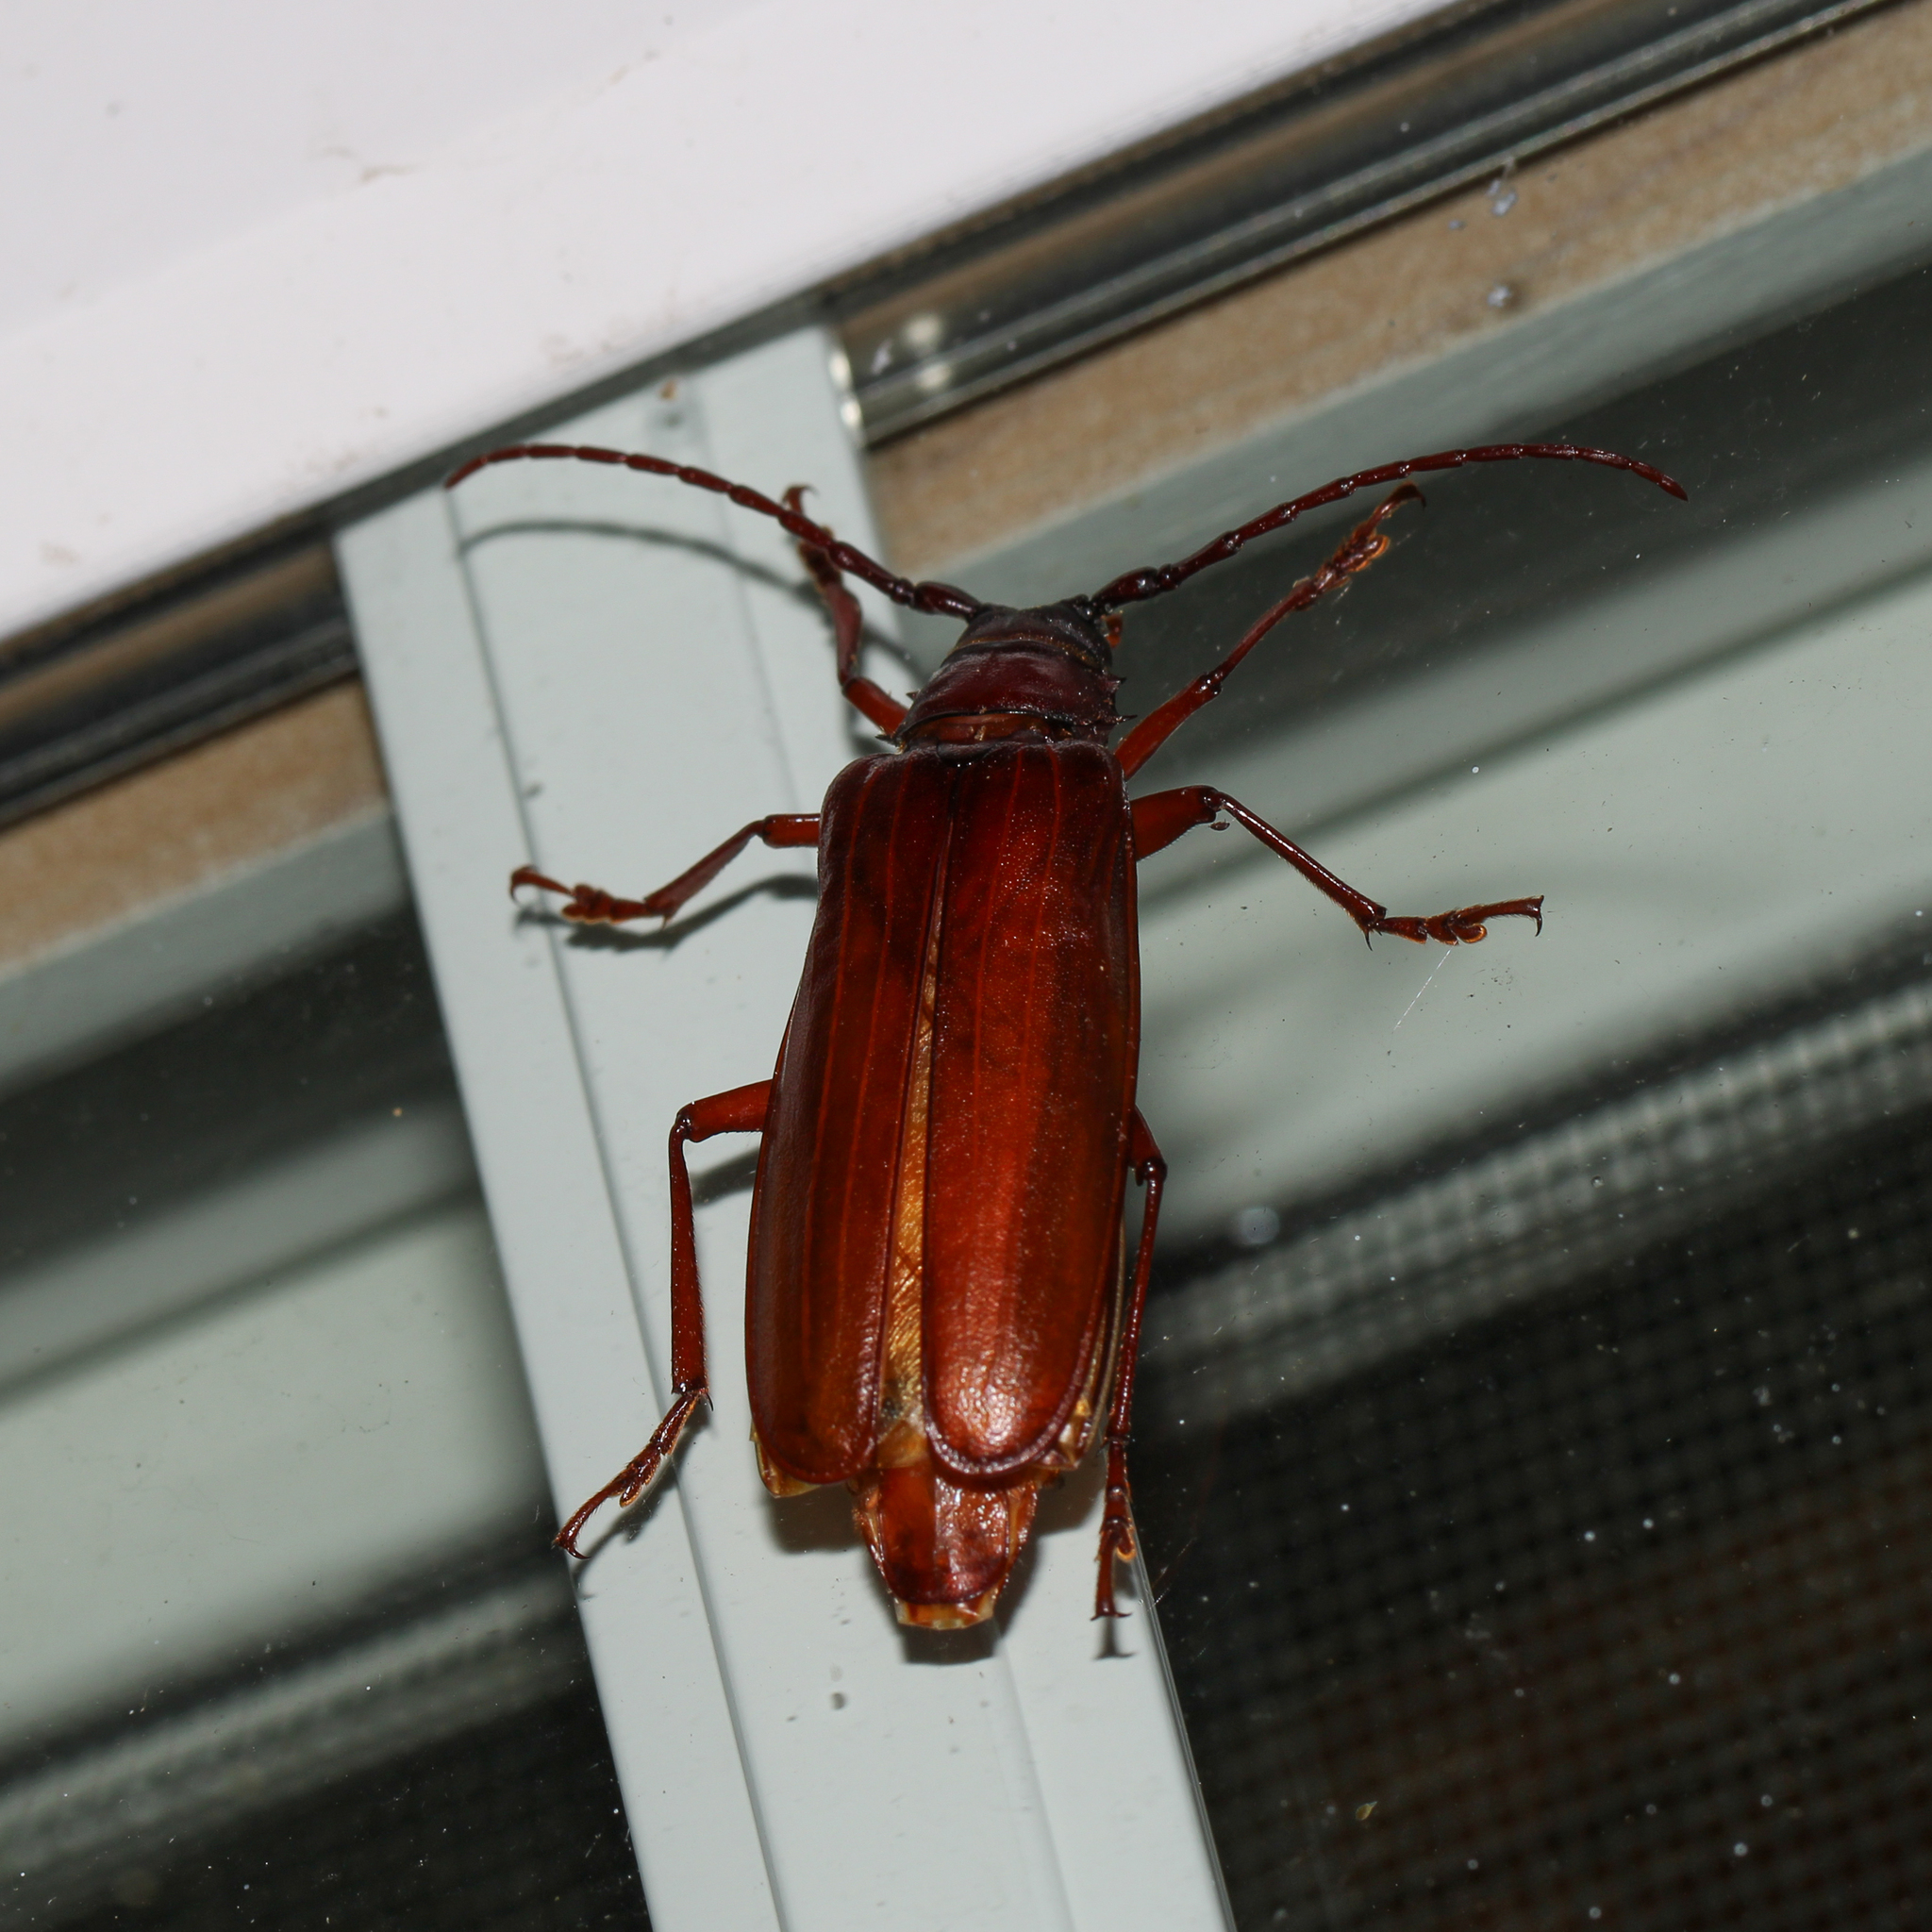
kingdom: Animalia
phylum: Arthropoda
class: Insecta
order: Coleoptera
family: Cerambycidae
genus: Orthosoma
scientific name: Orthosoma brunneum
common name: Brown prionid beetle
